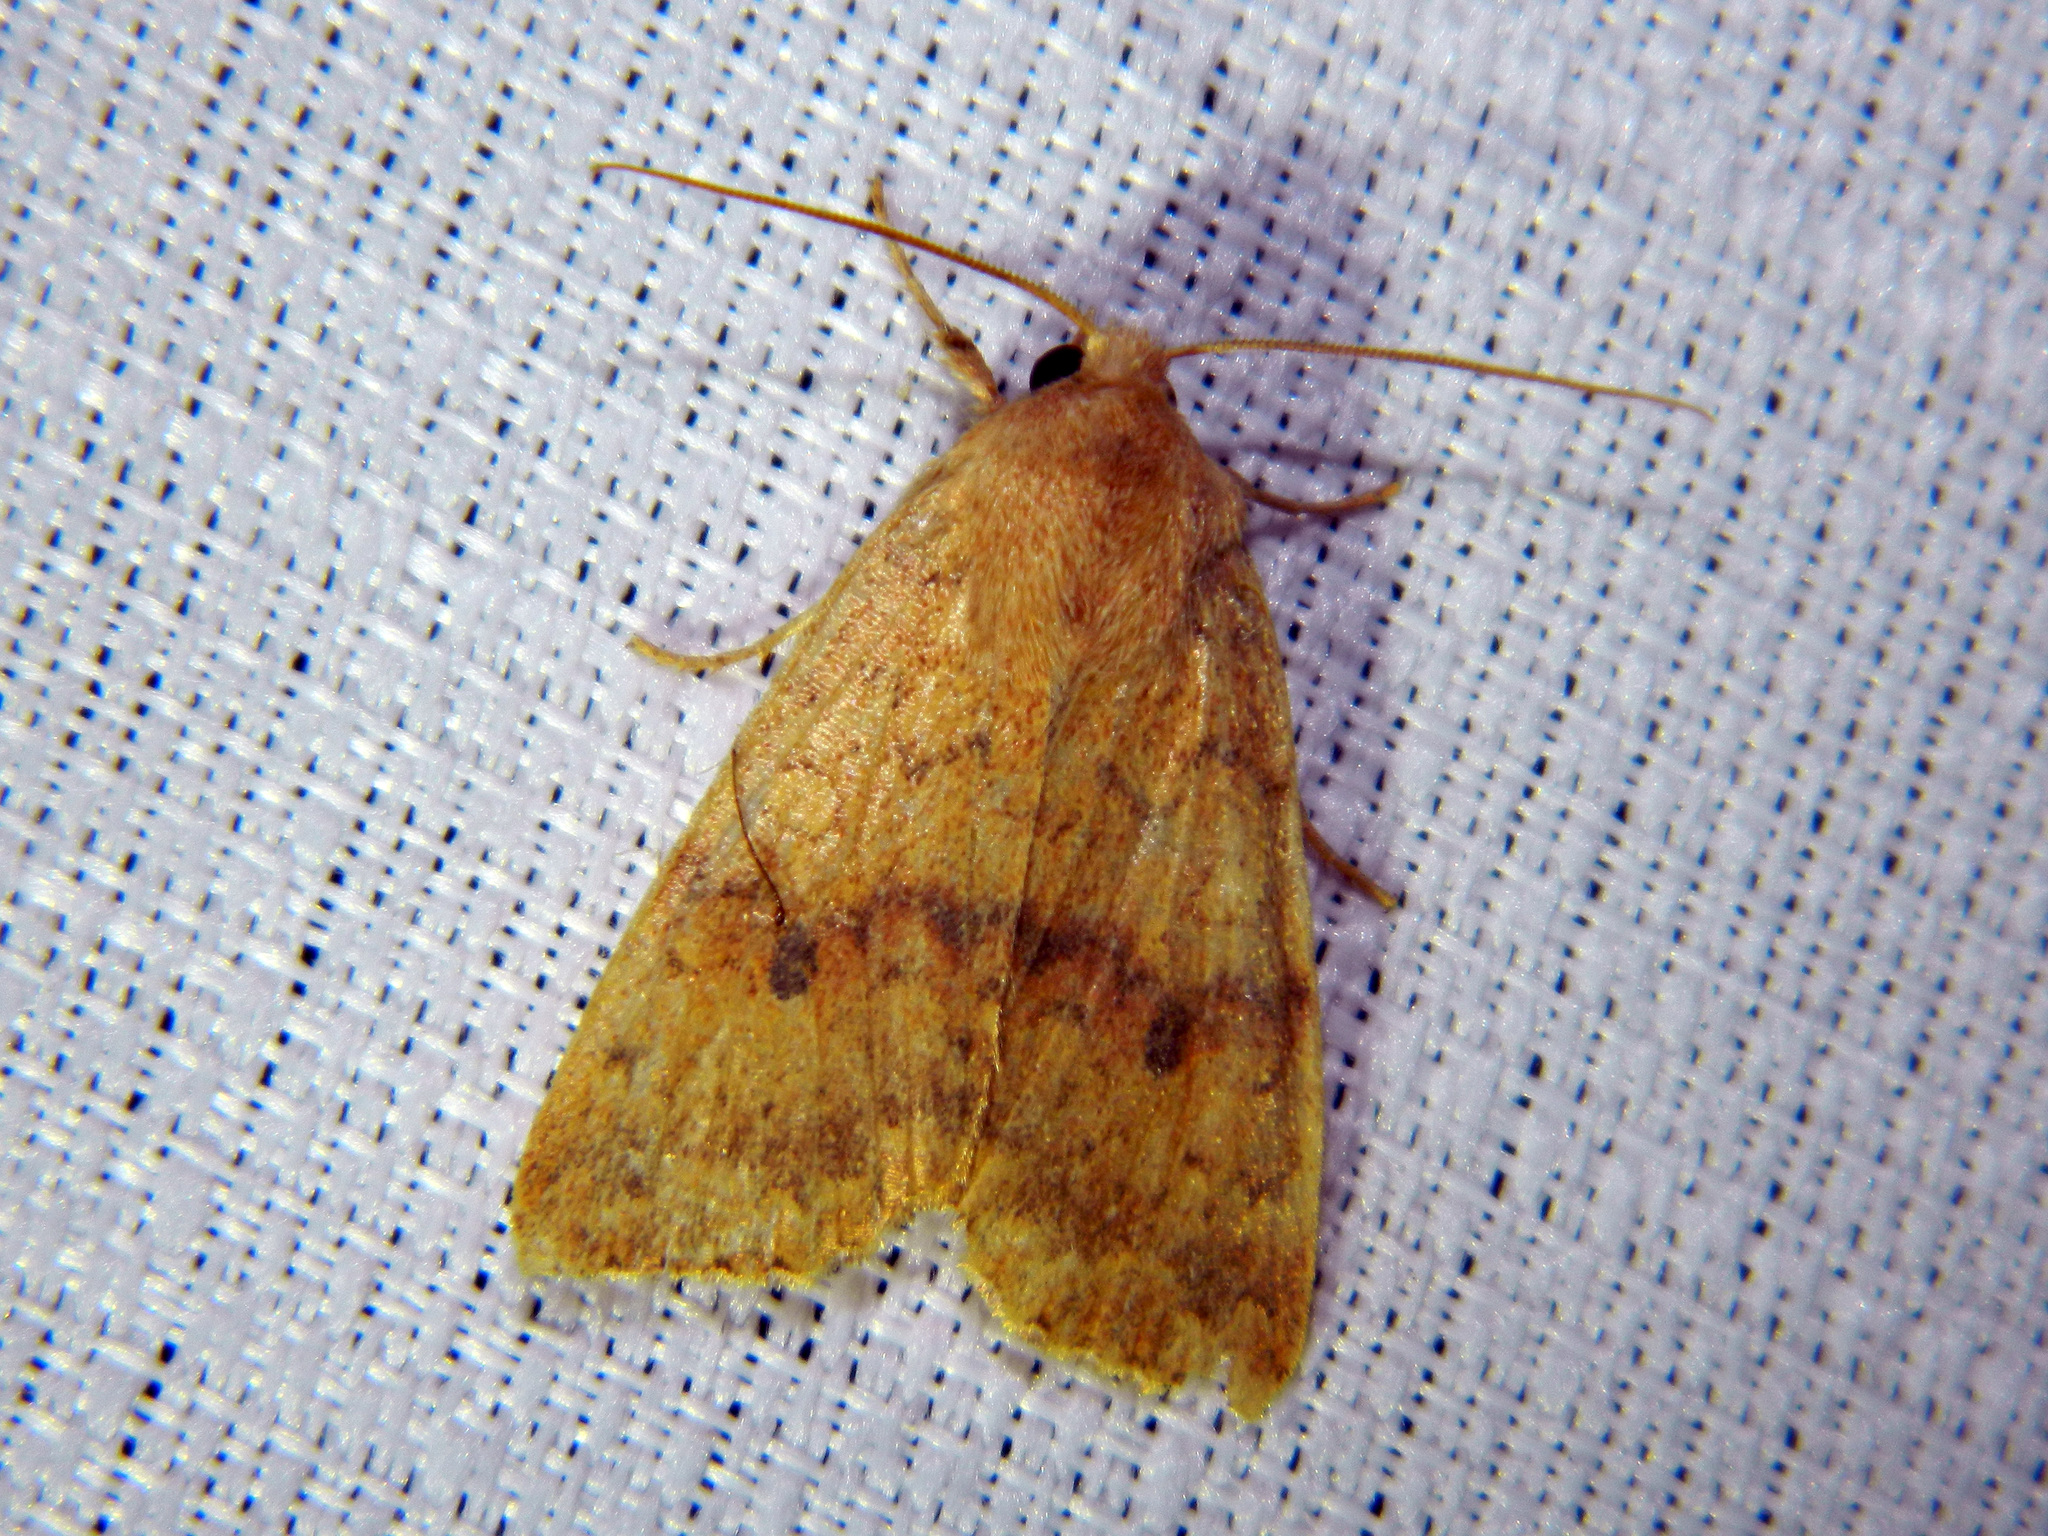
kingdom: Animalia
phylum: Arthropoda
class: Insecta
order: Lepidoptera
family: Noctuidae
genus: Agrochola
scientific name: Agrochola bicolorago
